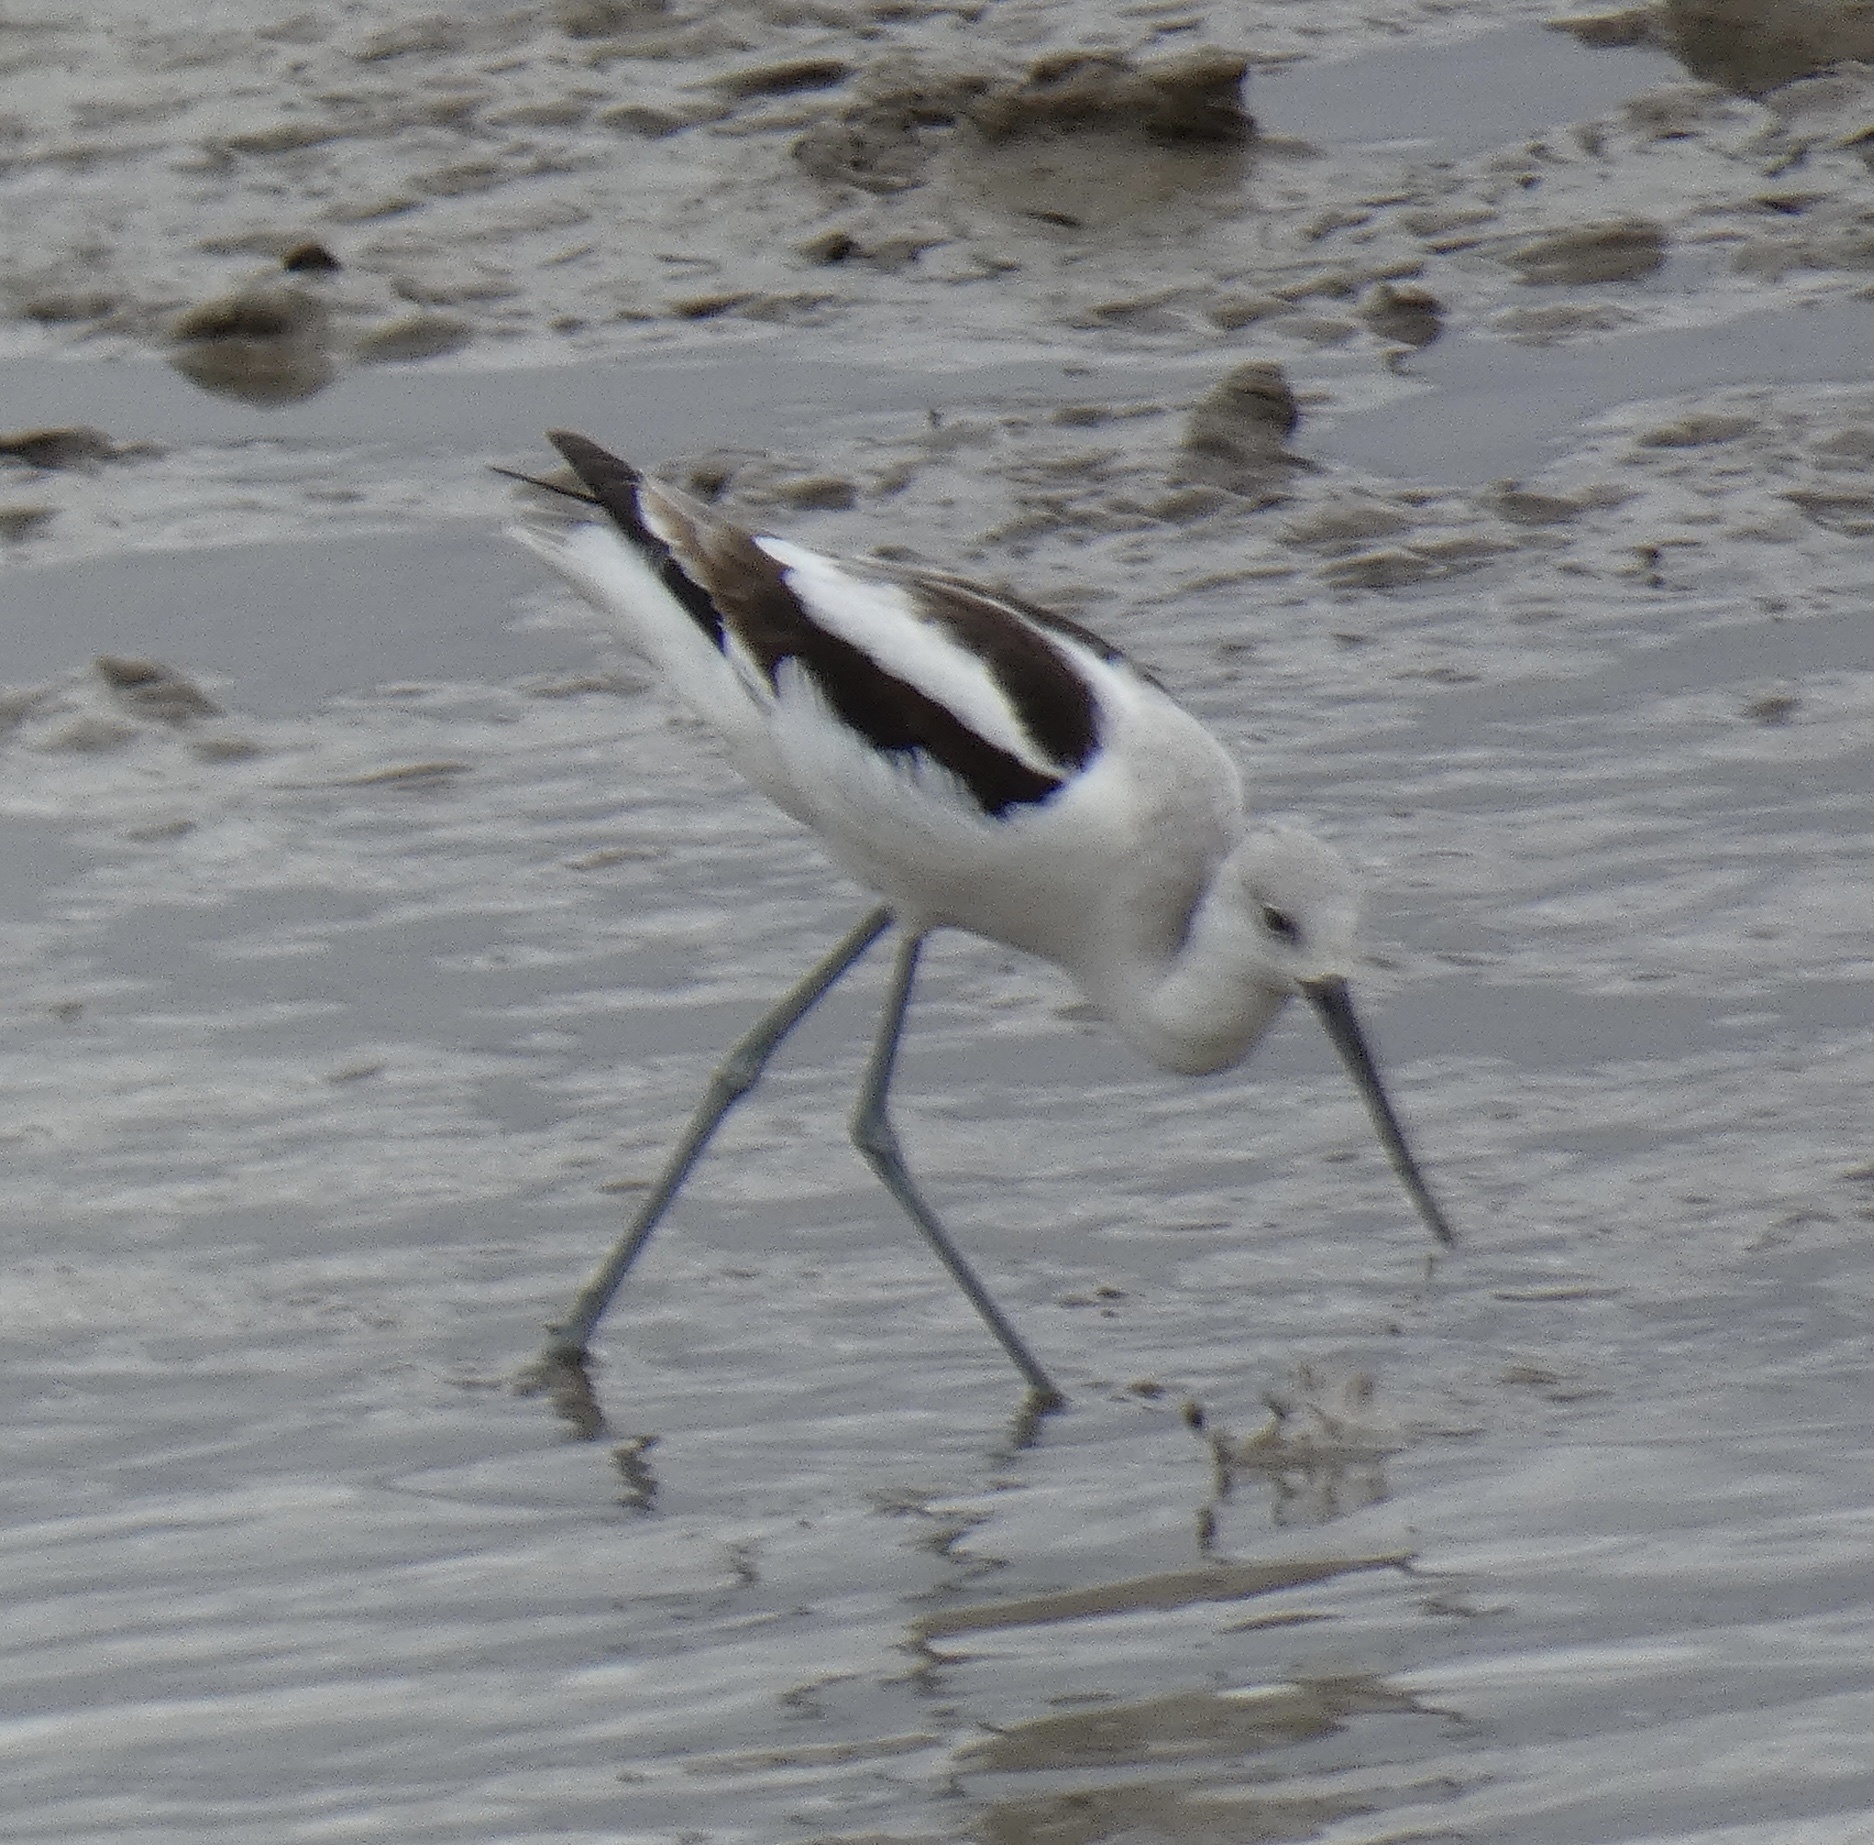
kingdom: Animalia
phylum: Chordata
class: Aves
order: Charadriiformes
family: Recurvirostridae
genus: Recurvirostra
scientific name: Recurvirostra americana
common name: American avocet
